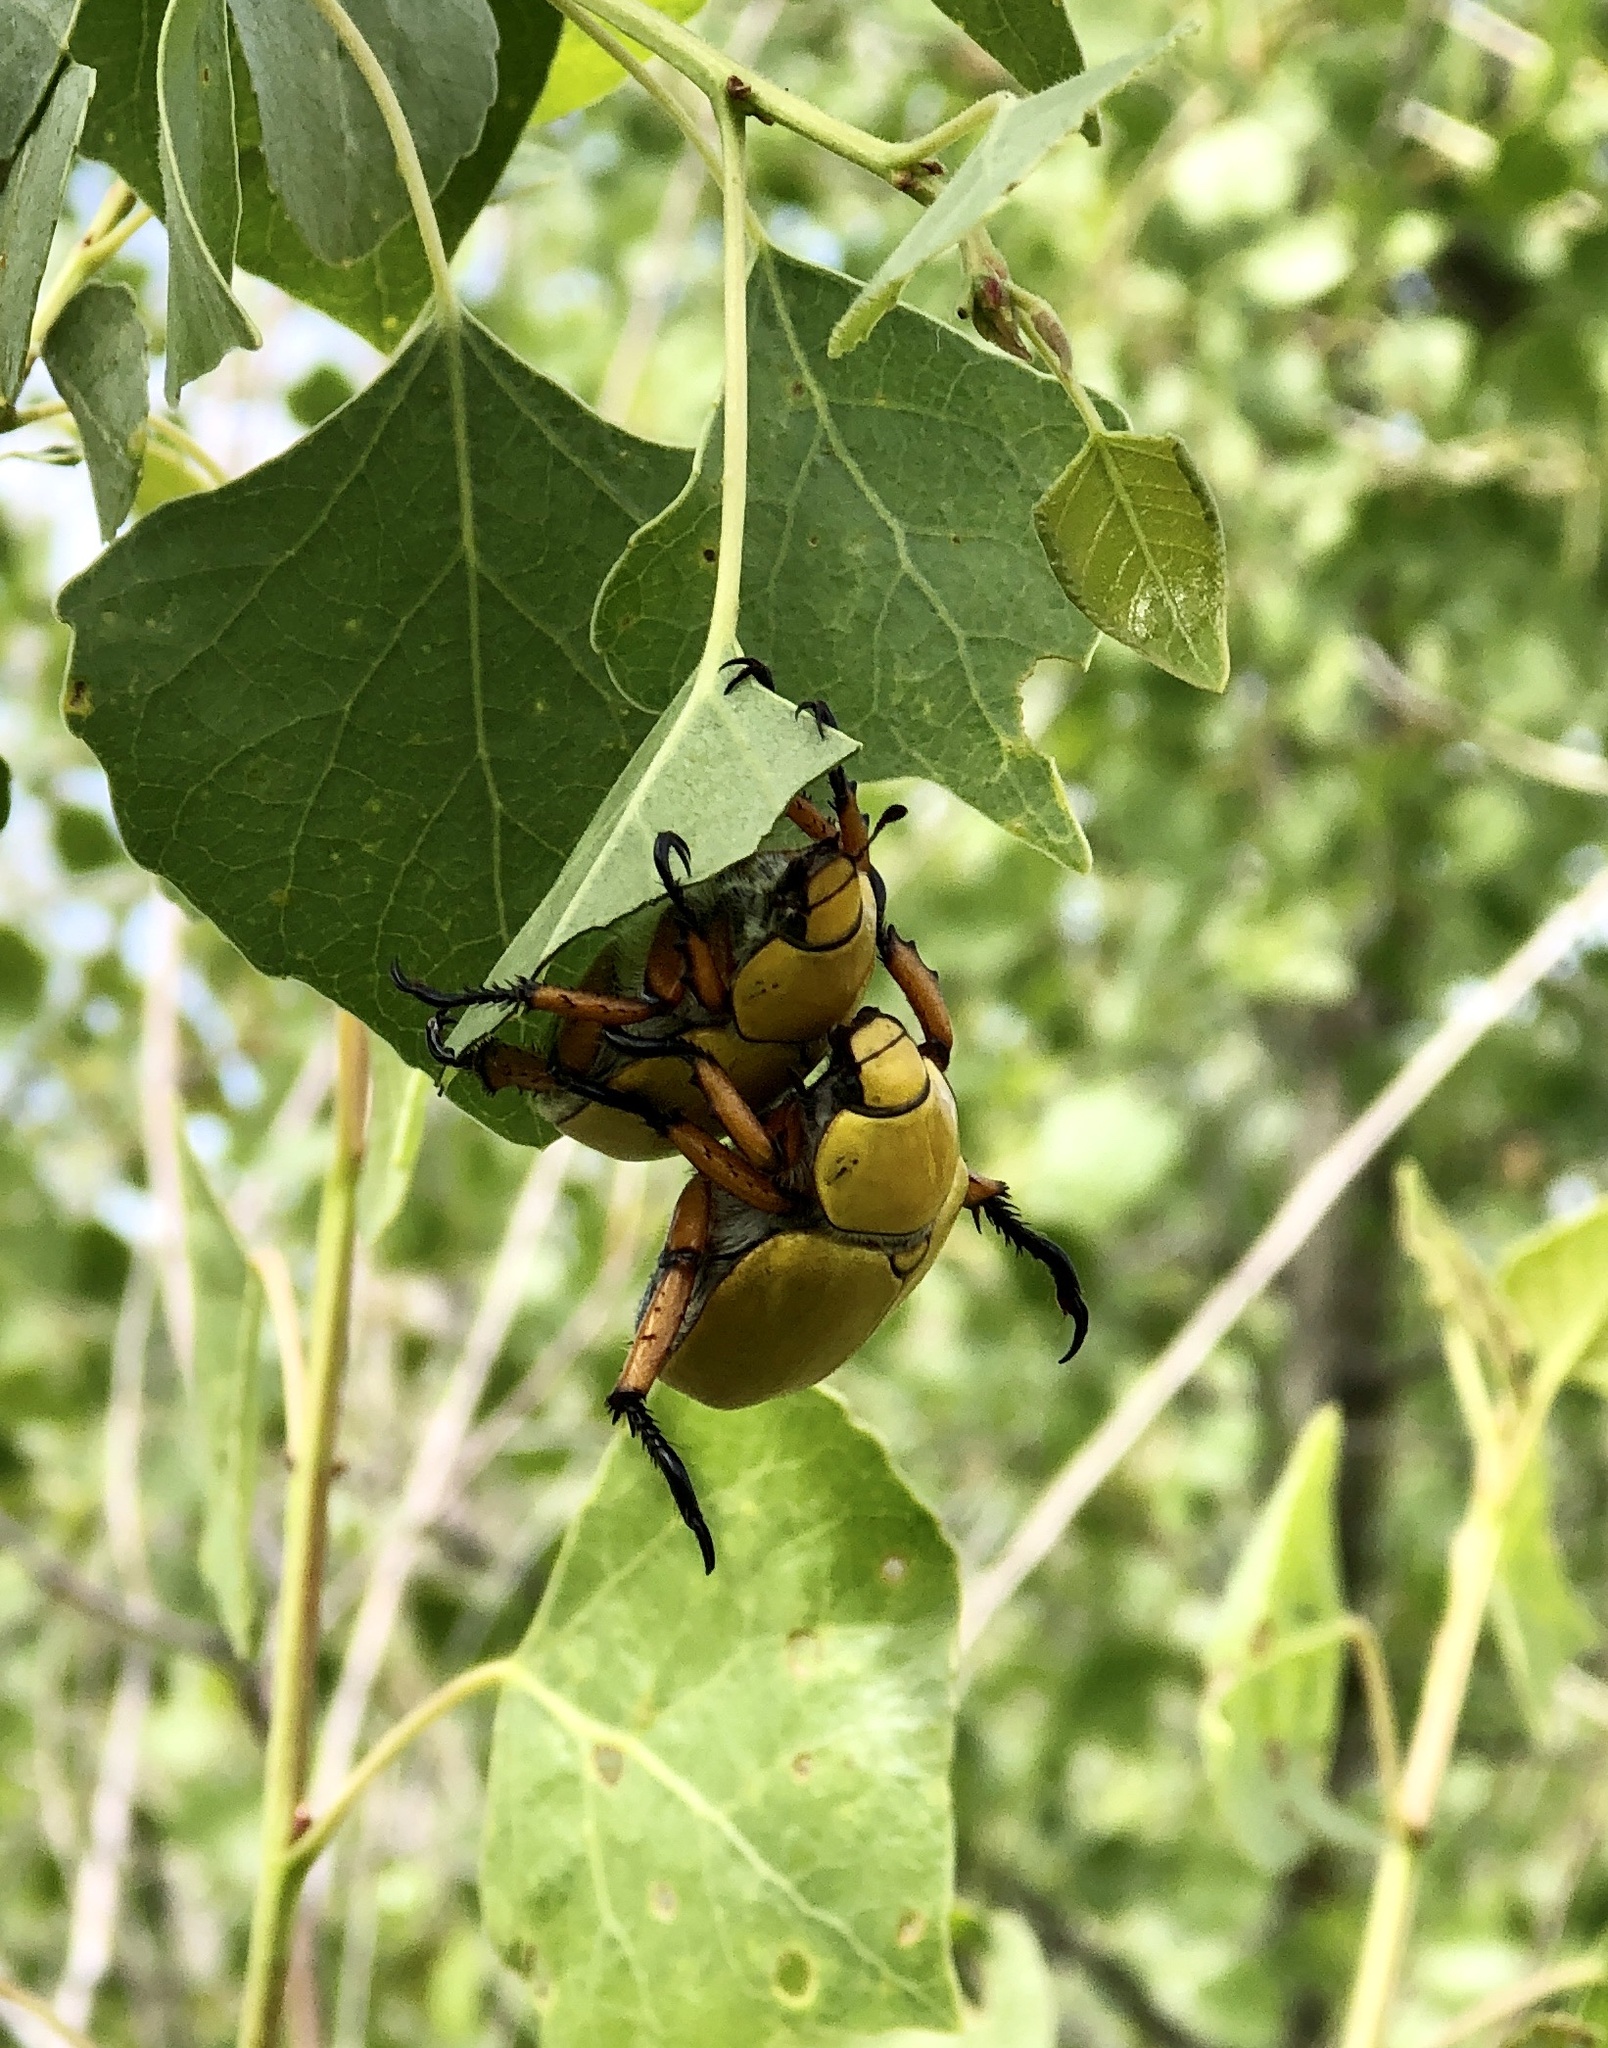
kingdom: Animalia
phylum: Arthropoda
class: Insecta
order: Coleoptera
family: Scarabaeidae
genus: Cotalpa
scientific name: Cotalpa flavida
